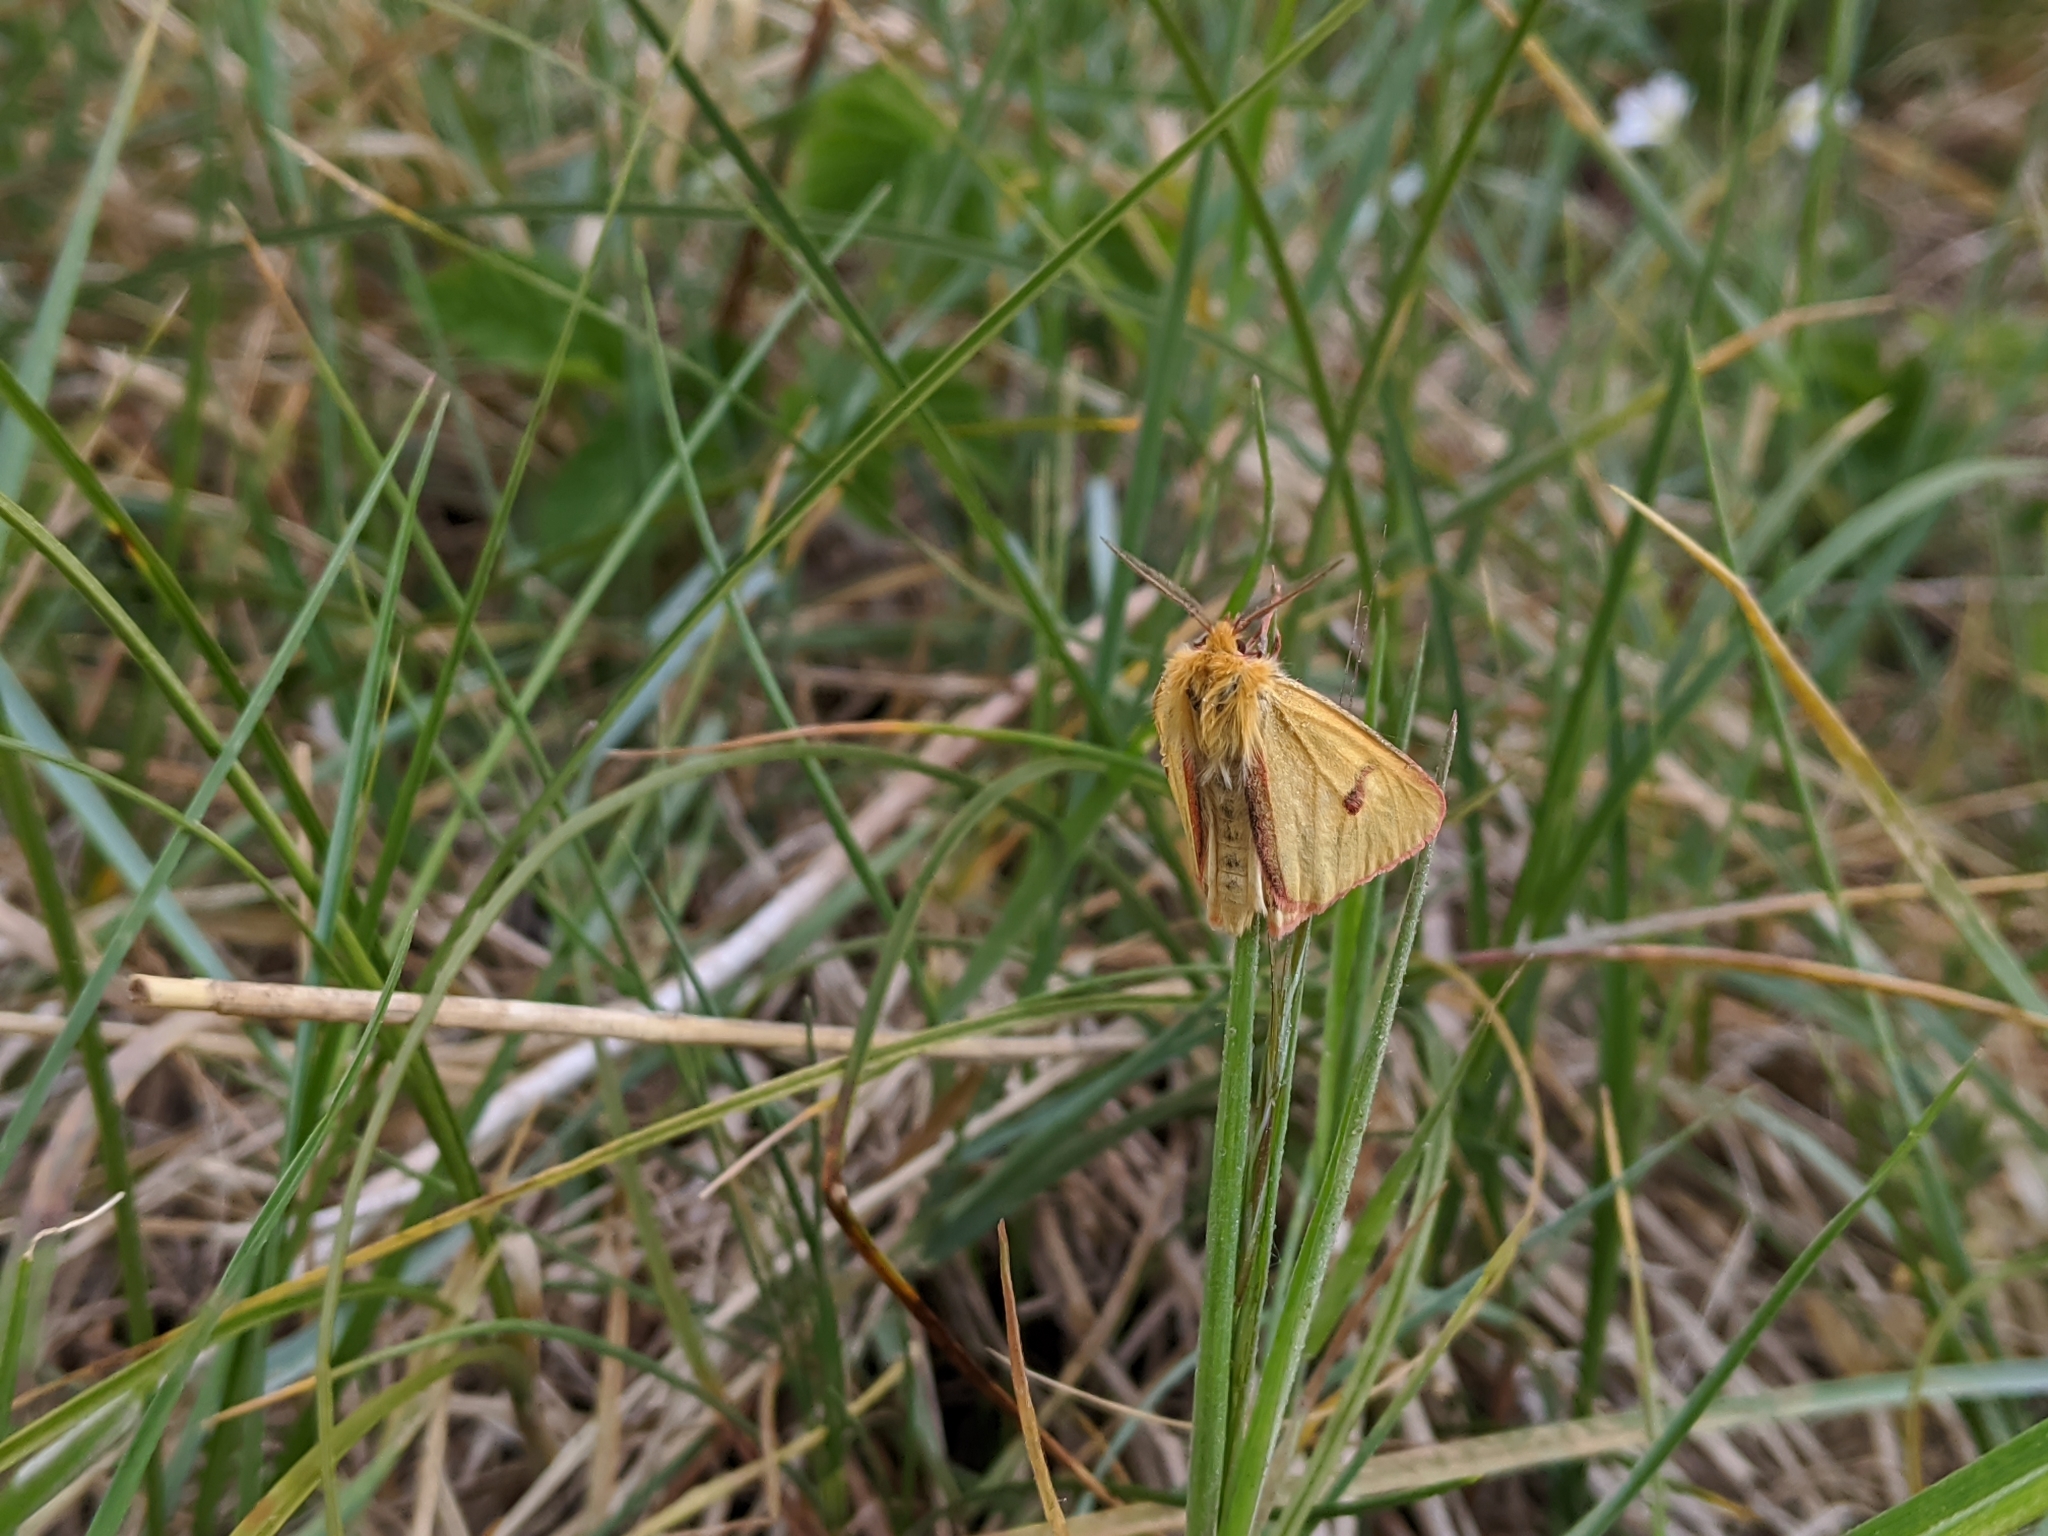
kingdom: Animalia
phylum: Arthropoda
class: Insecta
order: Lepidoptera
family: Erebidae
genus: Diacrisia
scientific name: Diacrisia sannio
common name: Clouded buff
